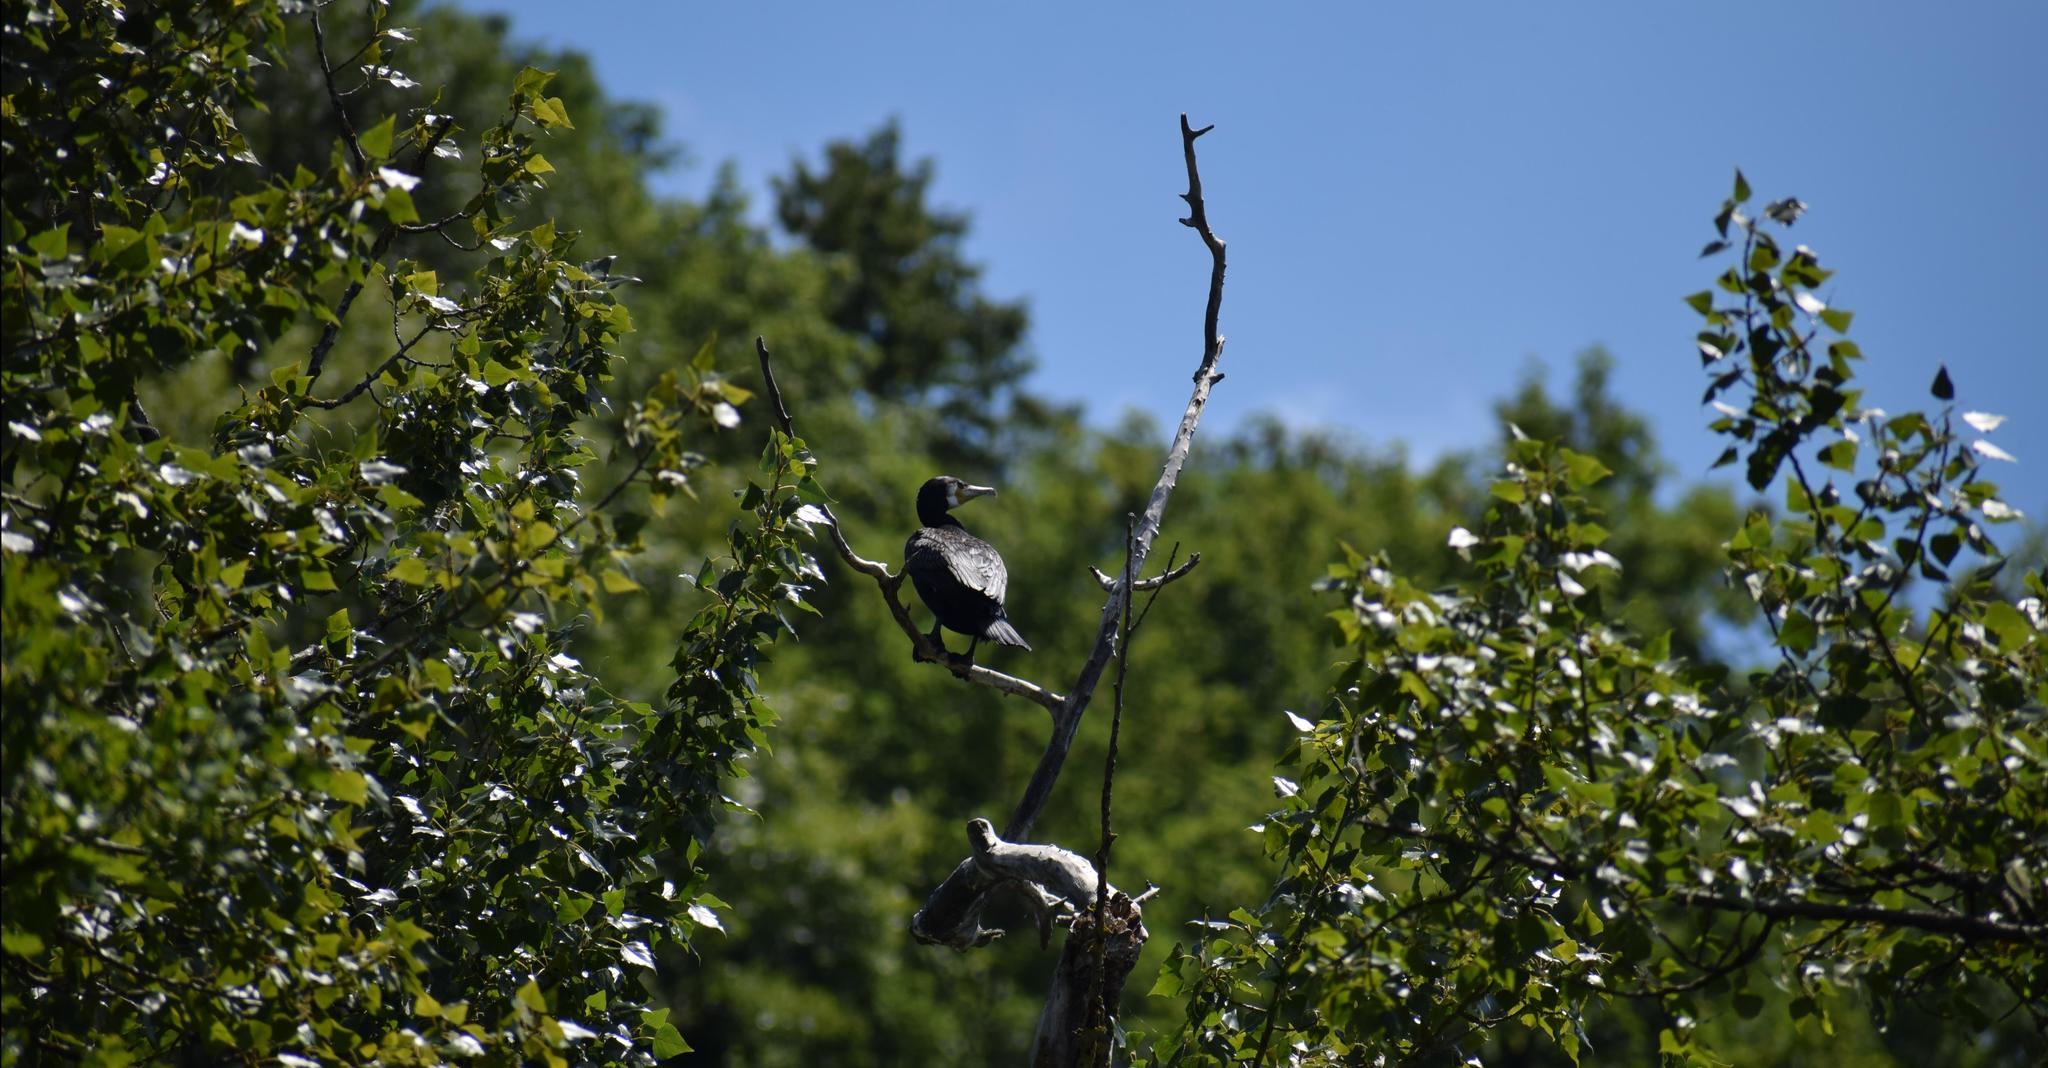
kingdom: Animalia
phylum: Chordata
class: Aves
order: Suliformes
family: Phalacrocoracidae
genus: Phalacrocorax
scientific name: Phalacrocorax carbo
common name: Great cormorant
